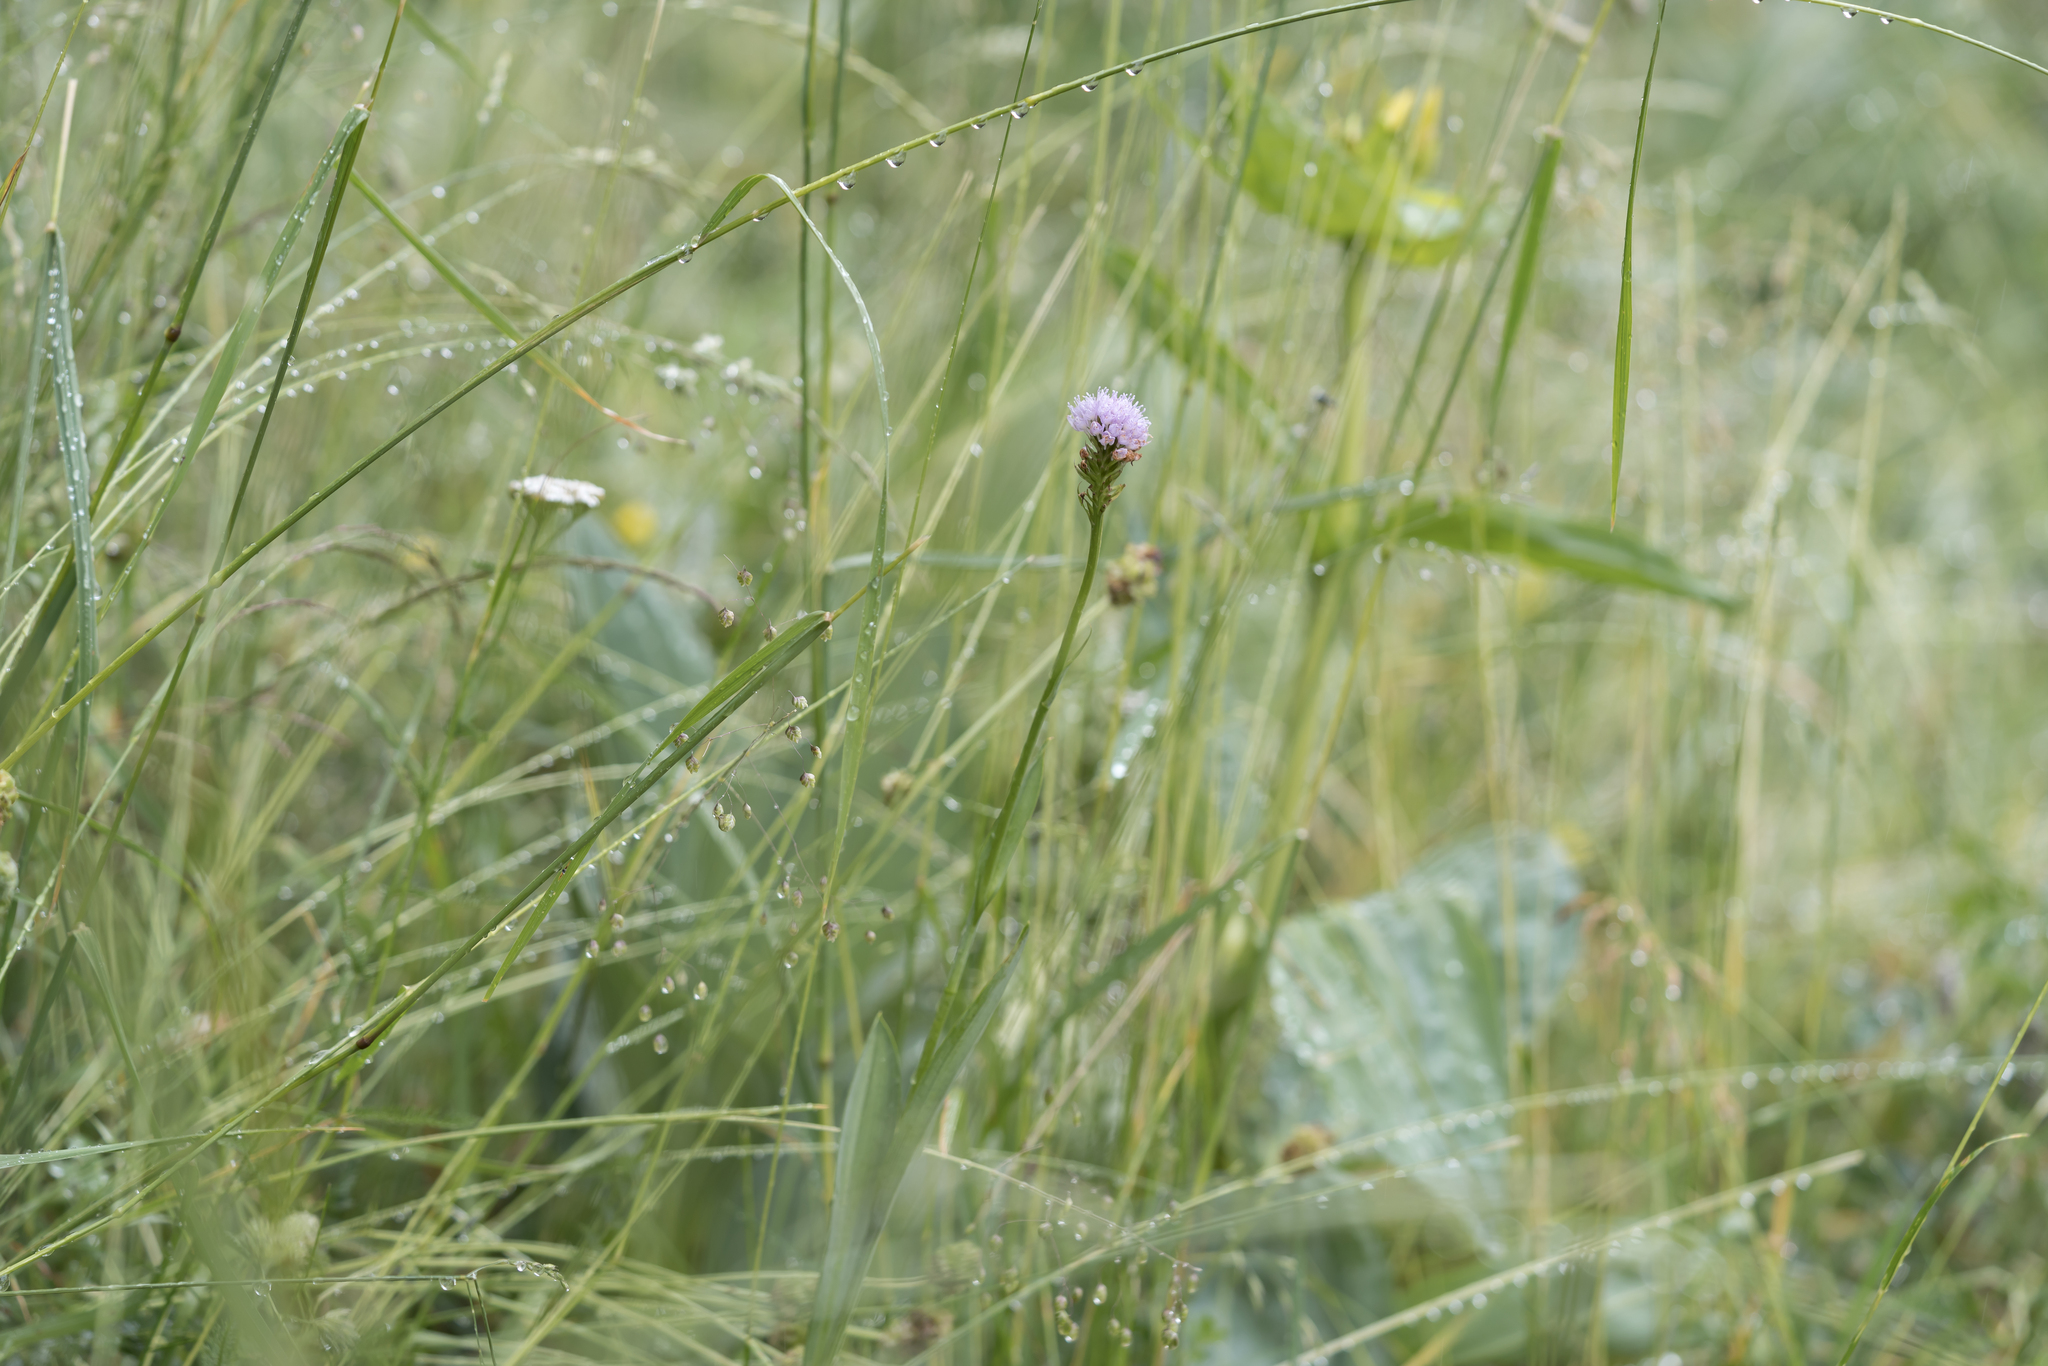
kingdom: Plantae
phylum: Tracheophyta
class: Liliopsida
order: Asparagales
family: Orchidaceae
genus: Traunsteinera
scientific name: Traunsteinera globosa
